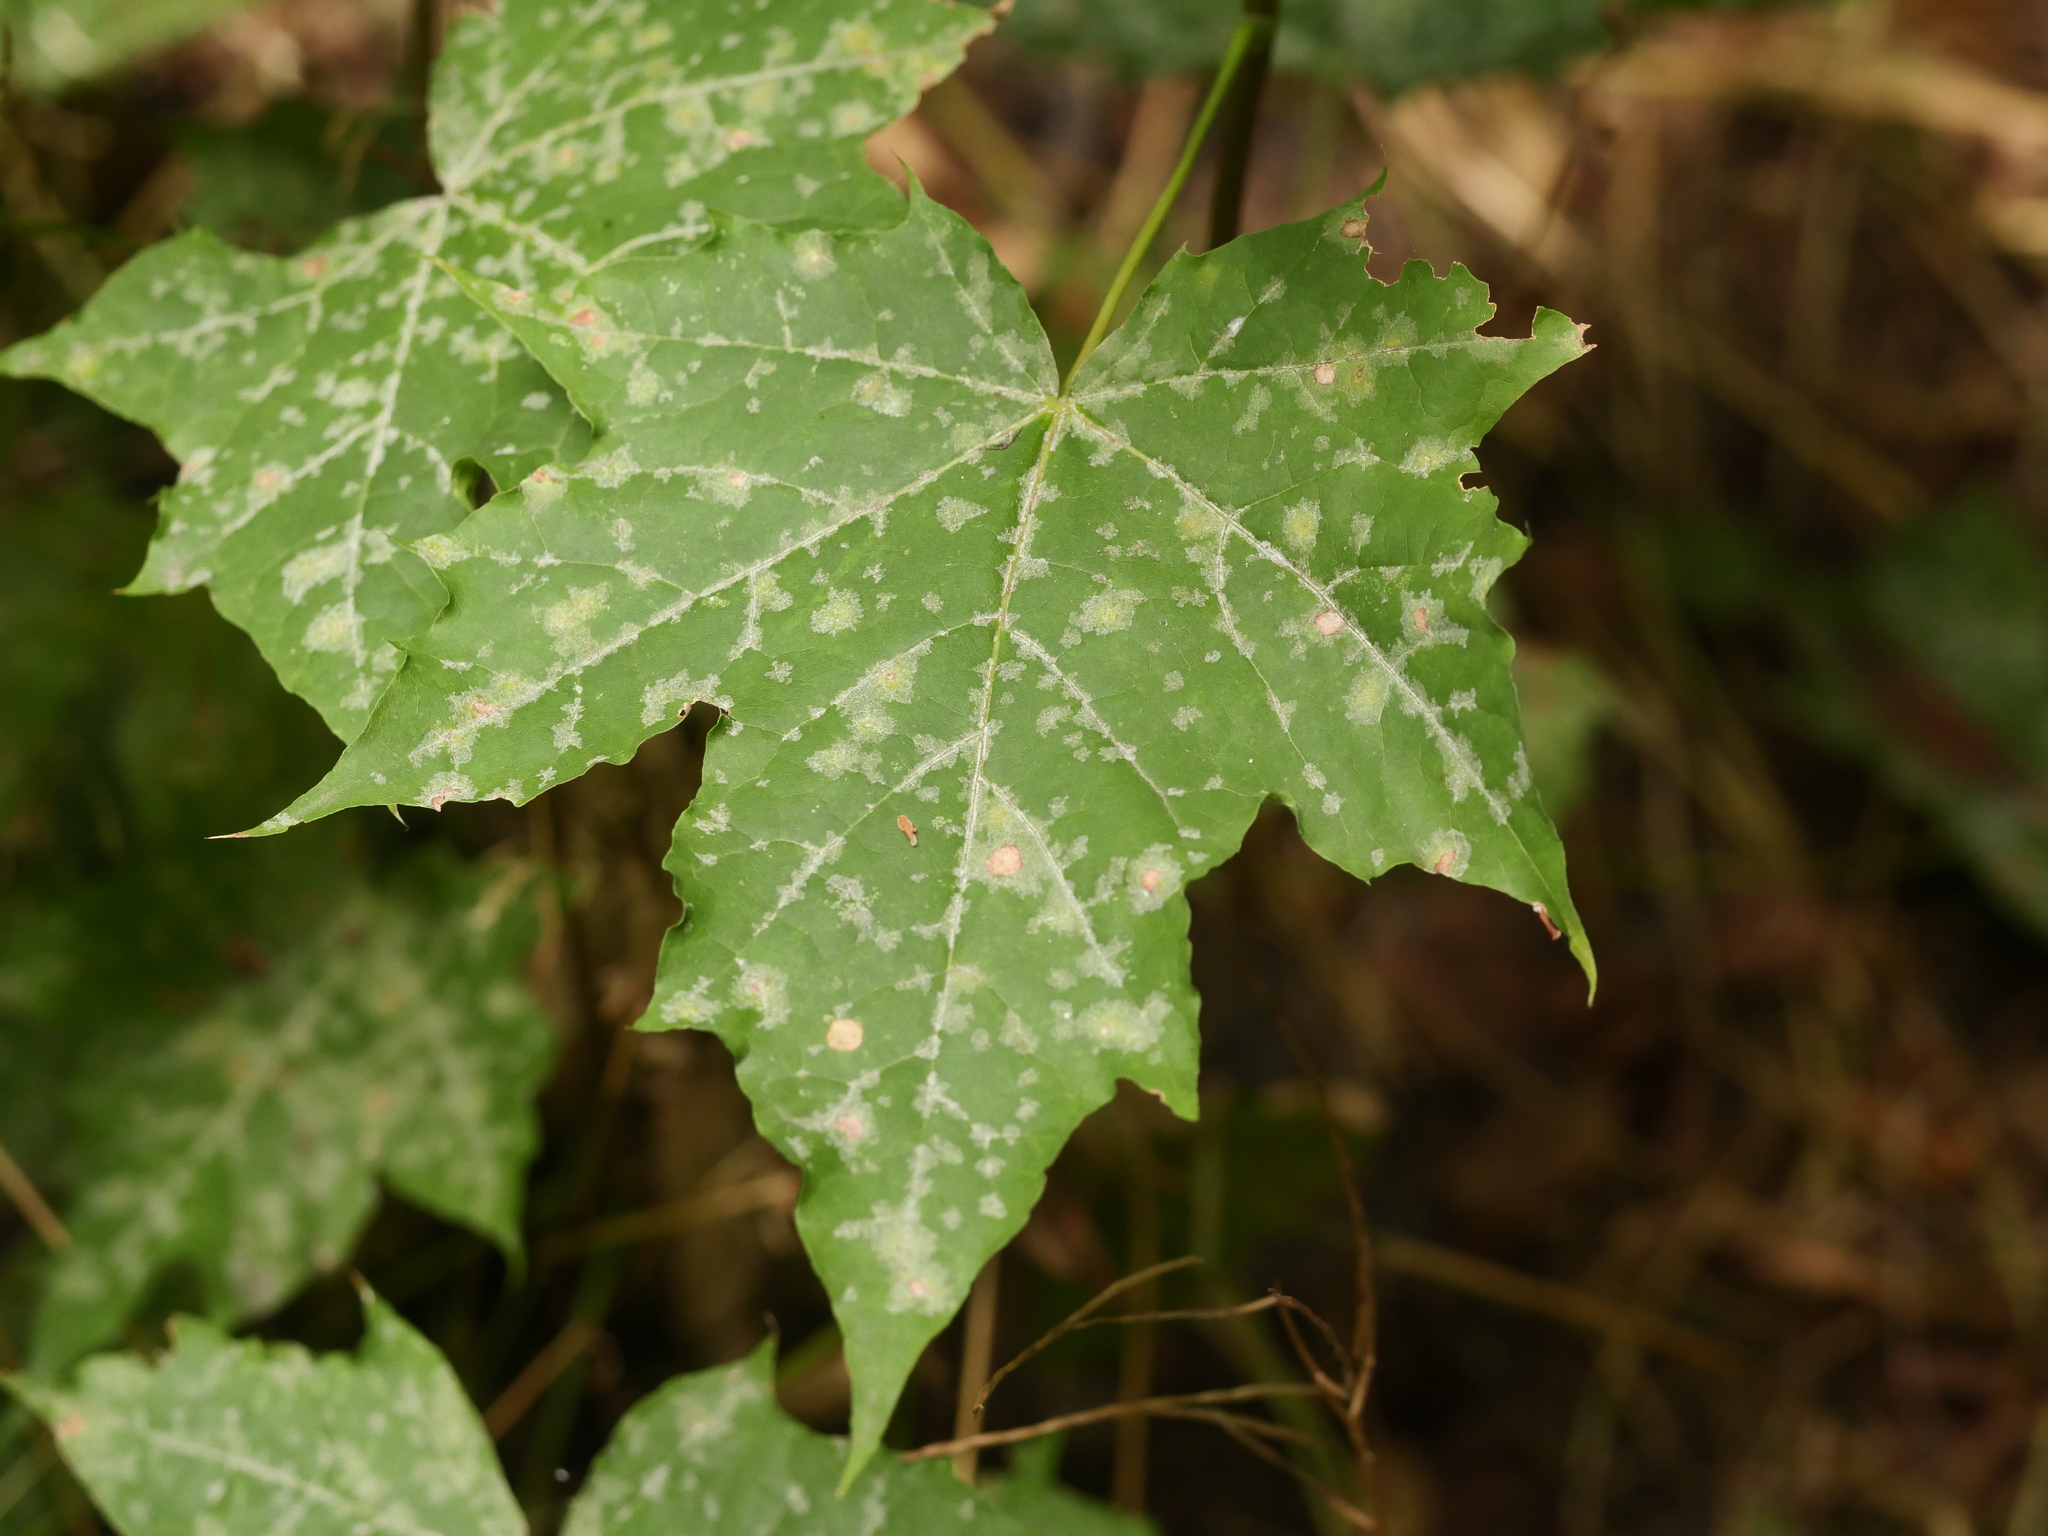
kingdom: Plantae
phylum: Tracheophyta
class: Magnoliopsida
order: Sapindales
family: Sapindaceae
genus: Acer
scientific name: Acer platanoides
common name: Norway maple
